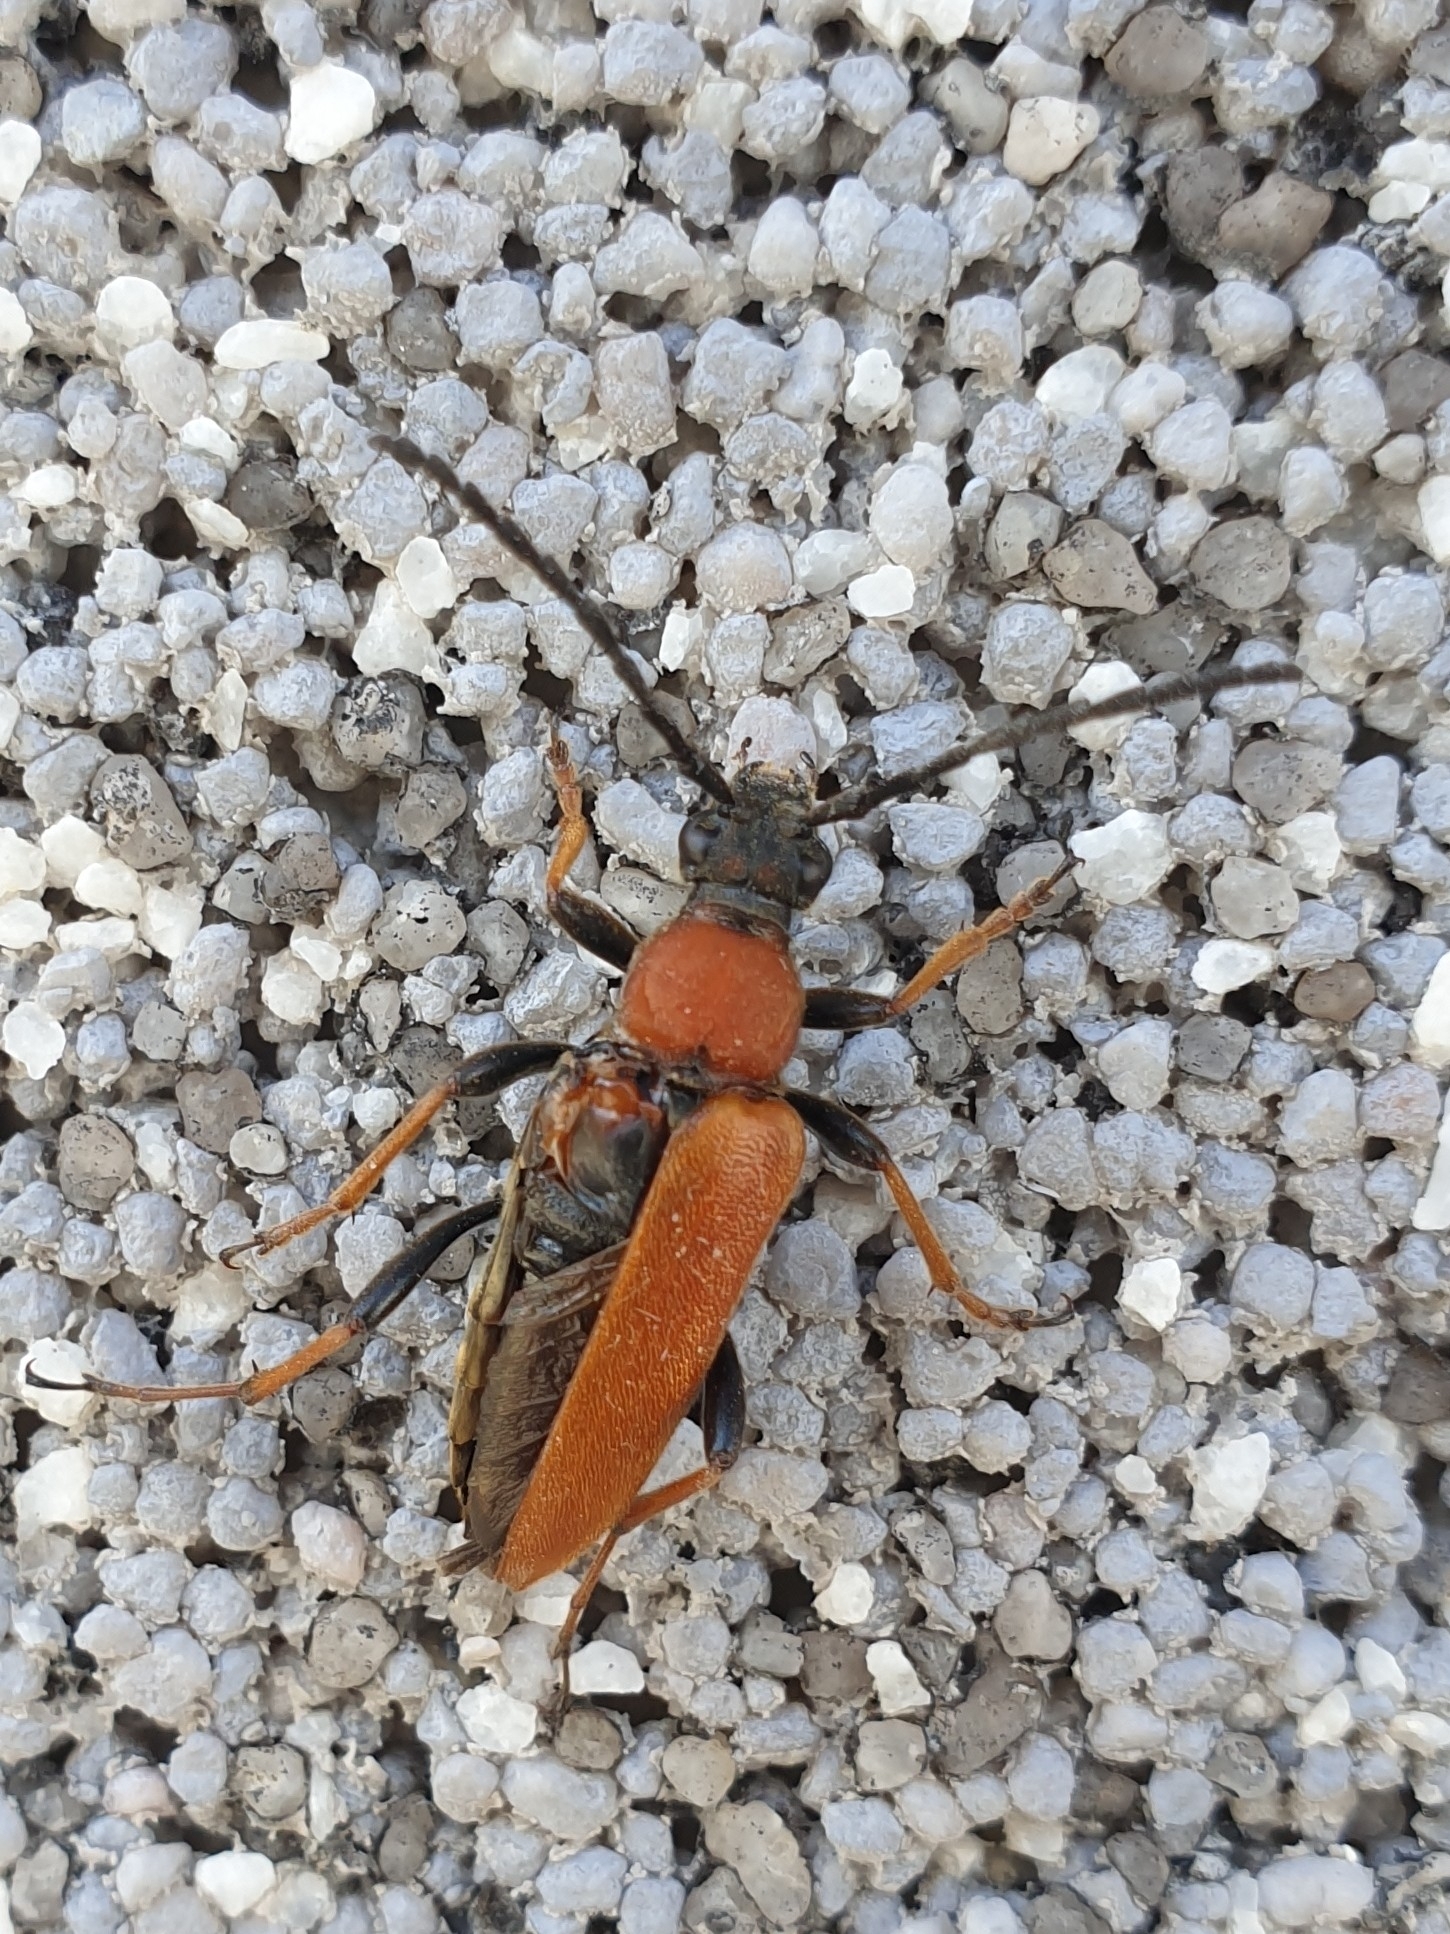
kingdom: Animalia
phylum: Arthropoda
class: Insecta
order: Coleoptera
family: Cerambycidae
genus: Stictoleptura
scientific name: Stictoleptura rubra
